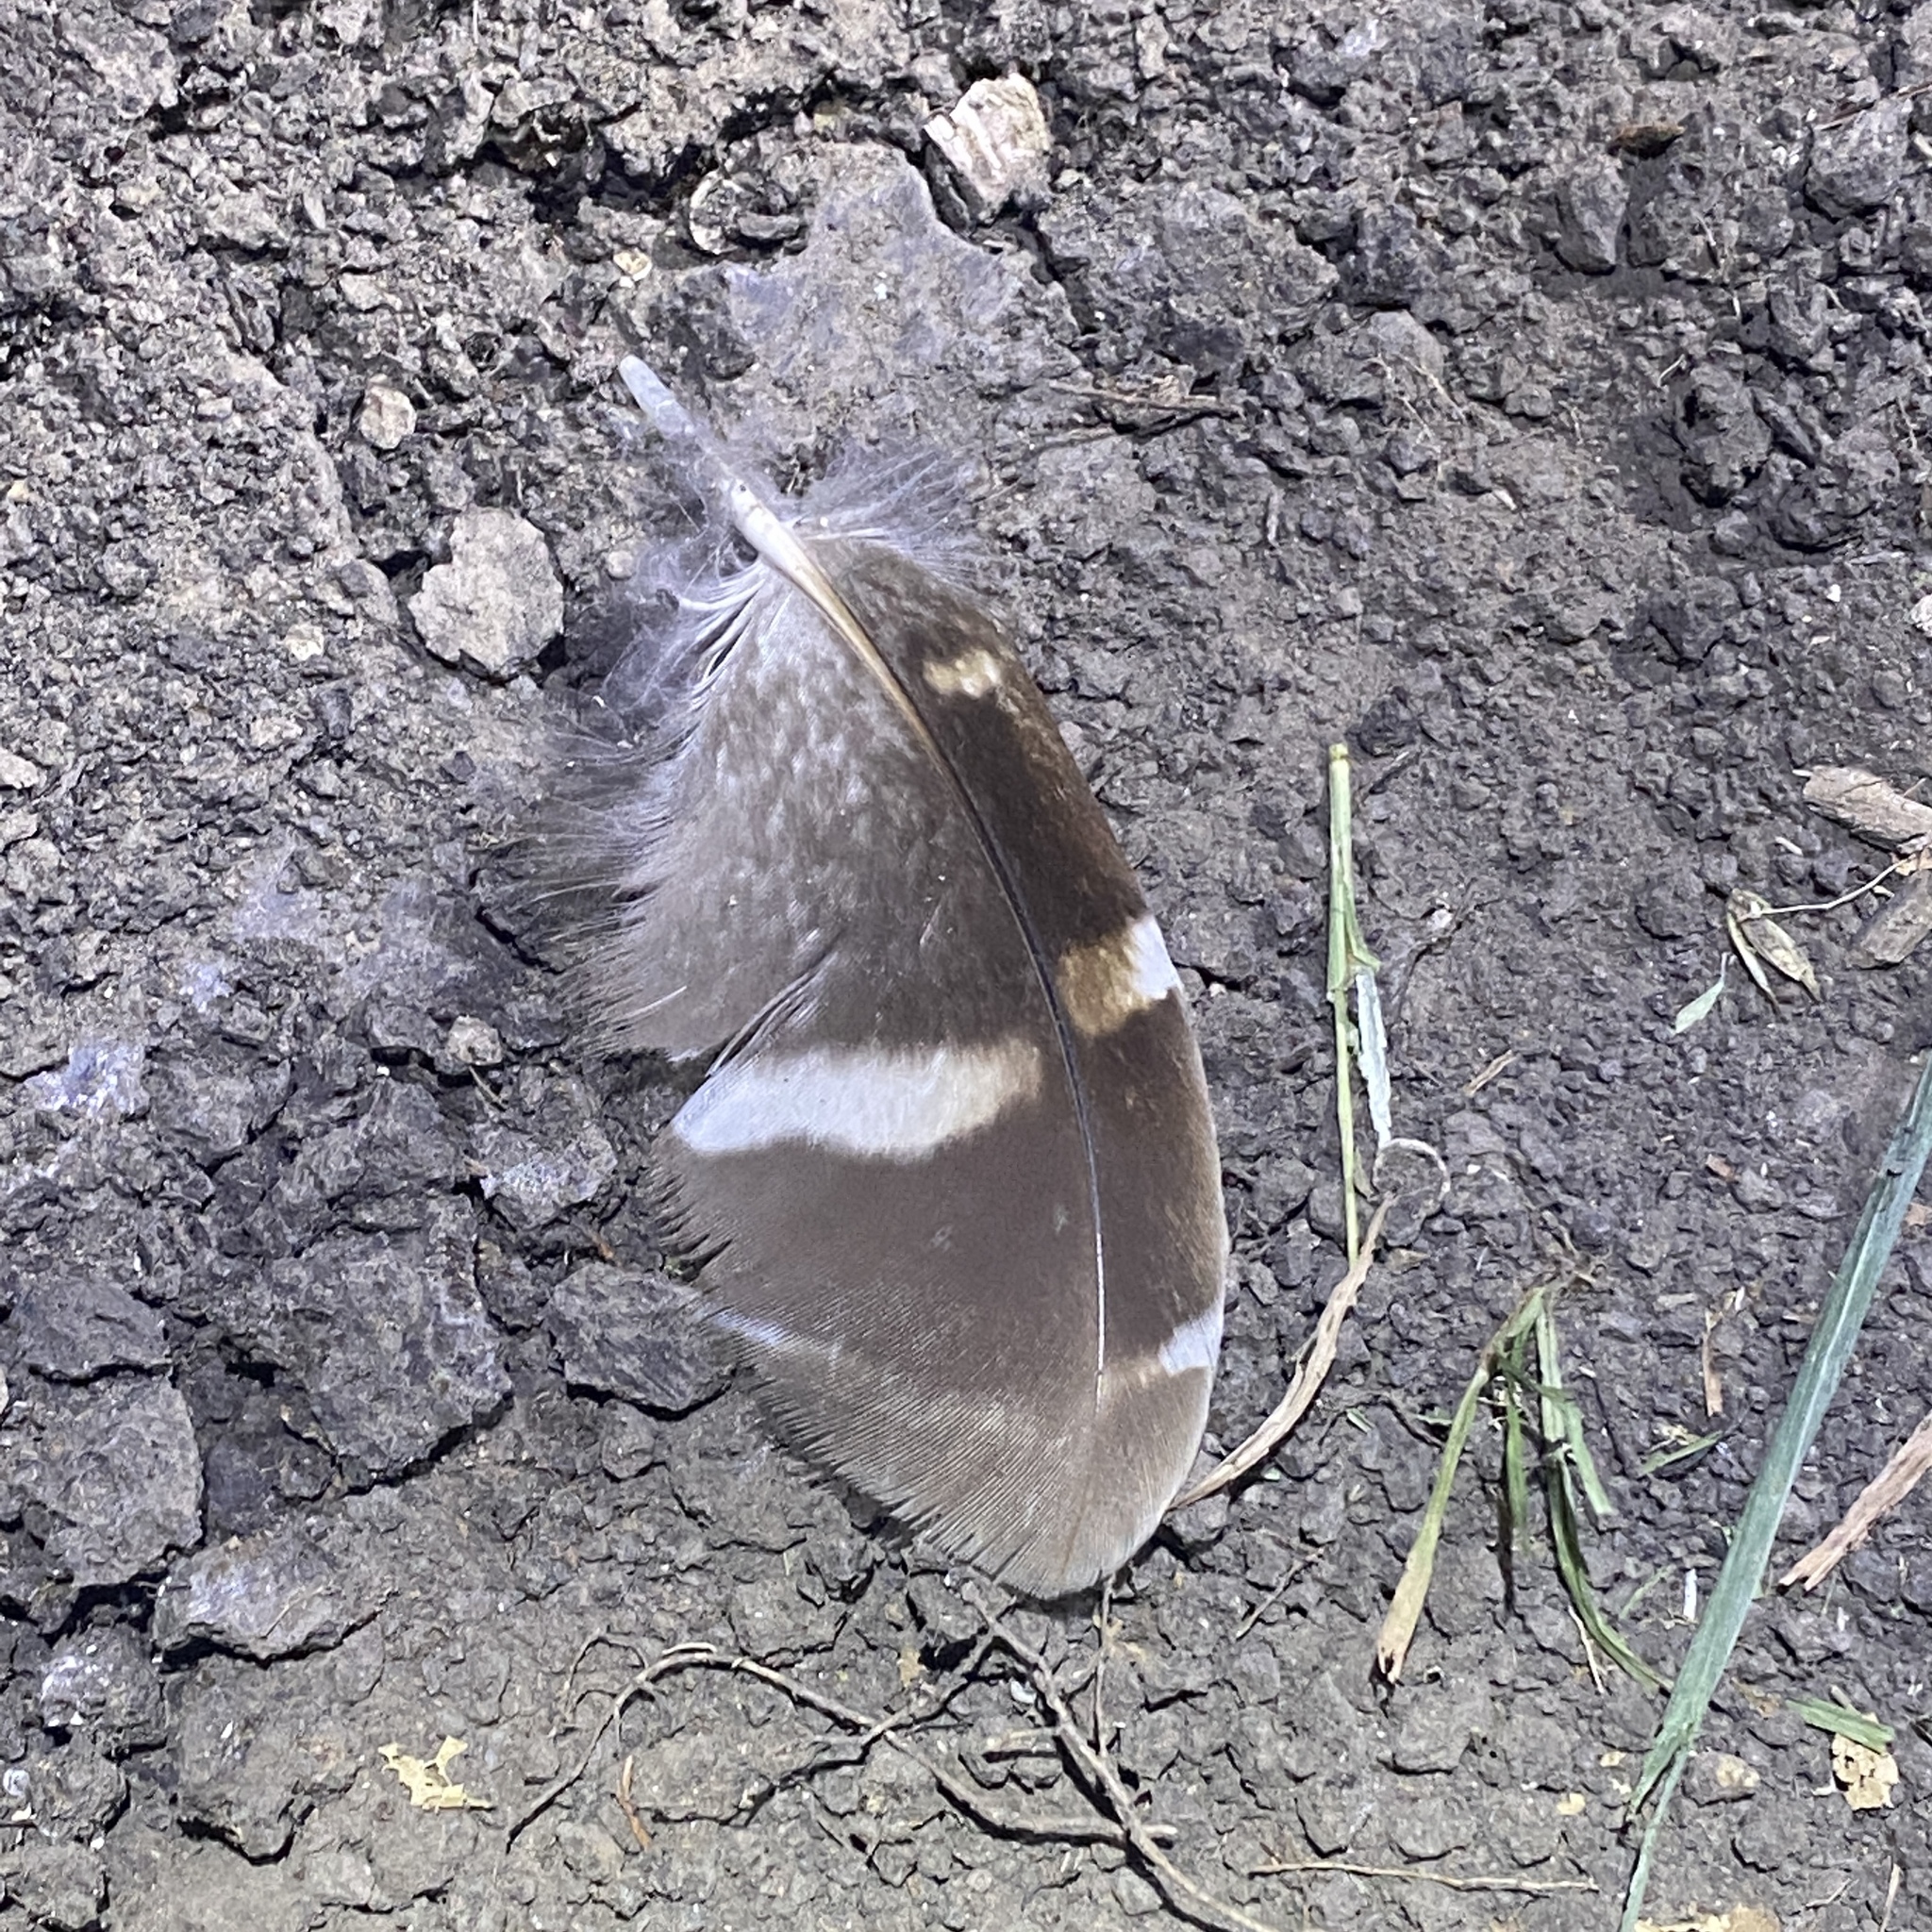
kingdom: Animalia
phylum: Chordata
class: Aves
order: Strigiformes
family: Strigidae
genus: Strix
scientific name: Strix varia
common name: Barred owl
